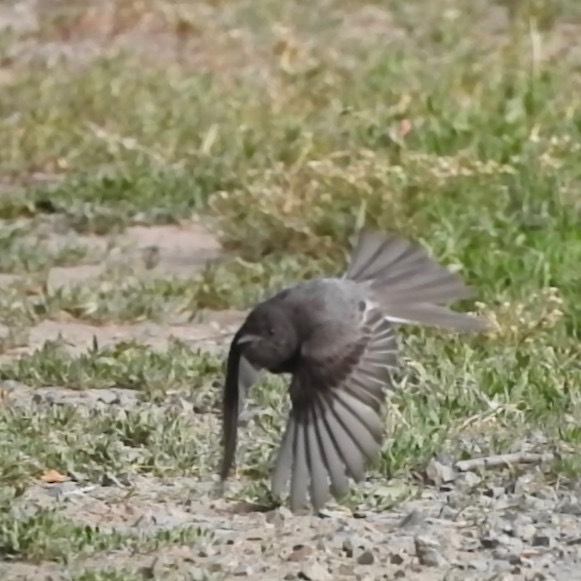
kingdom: Animalia
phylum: Chordata
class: Aves
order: Passeriformes
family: Tyrannidae
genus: Sayornis
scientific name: Sayornis nigricans
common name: Black phoebe
